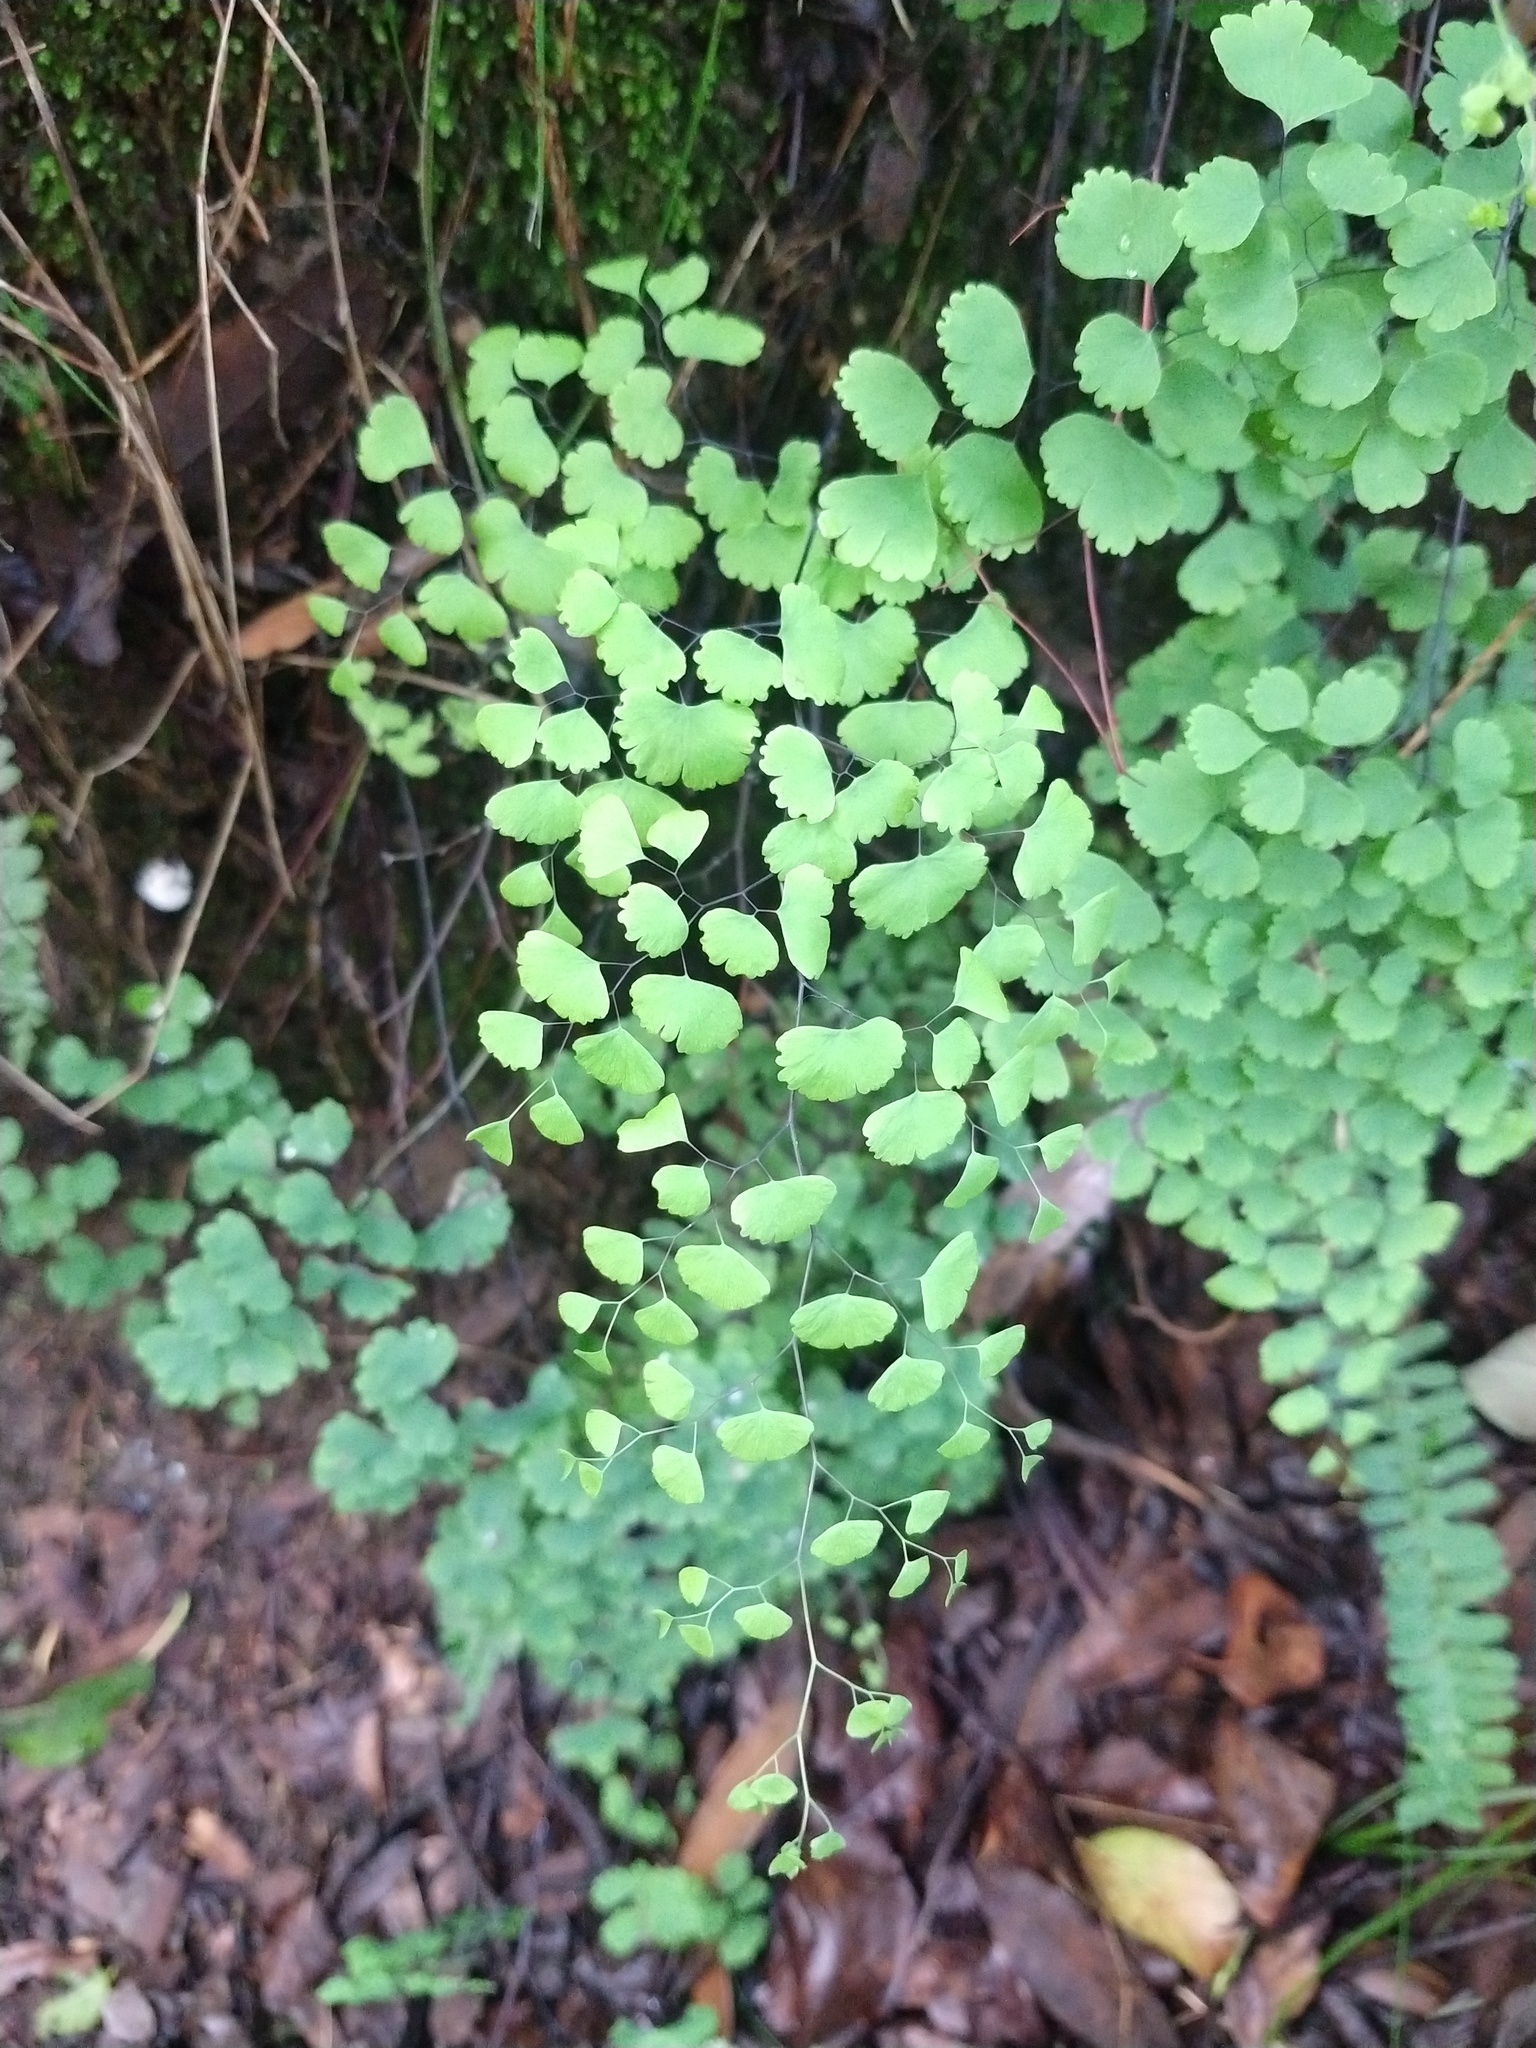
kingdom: Plantae
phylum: Tracheophyta
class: Polypodiopsida
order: Polypodiales
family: Pteridaceae
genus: Adiantum
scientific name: Adiantum poiretii
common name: Mexican maidenhair
